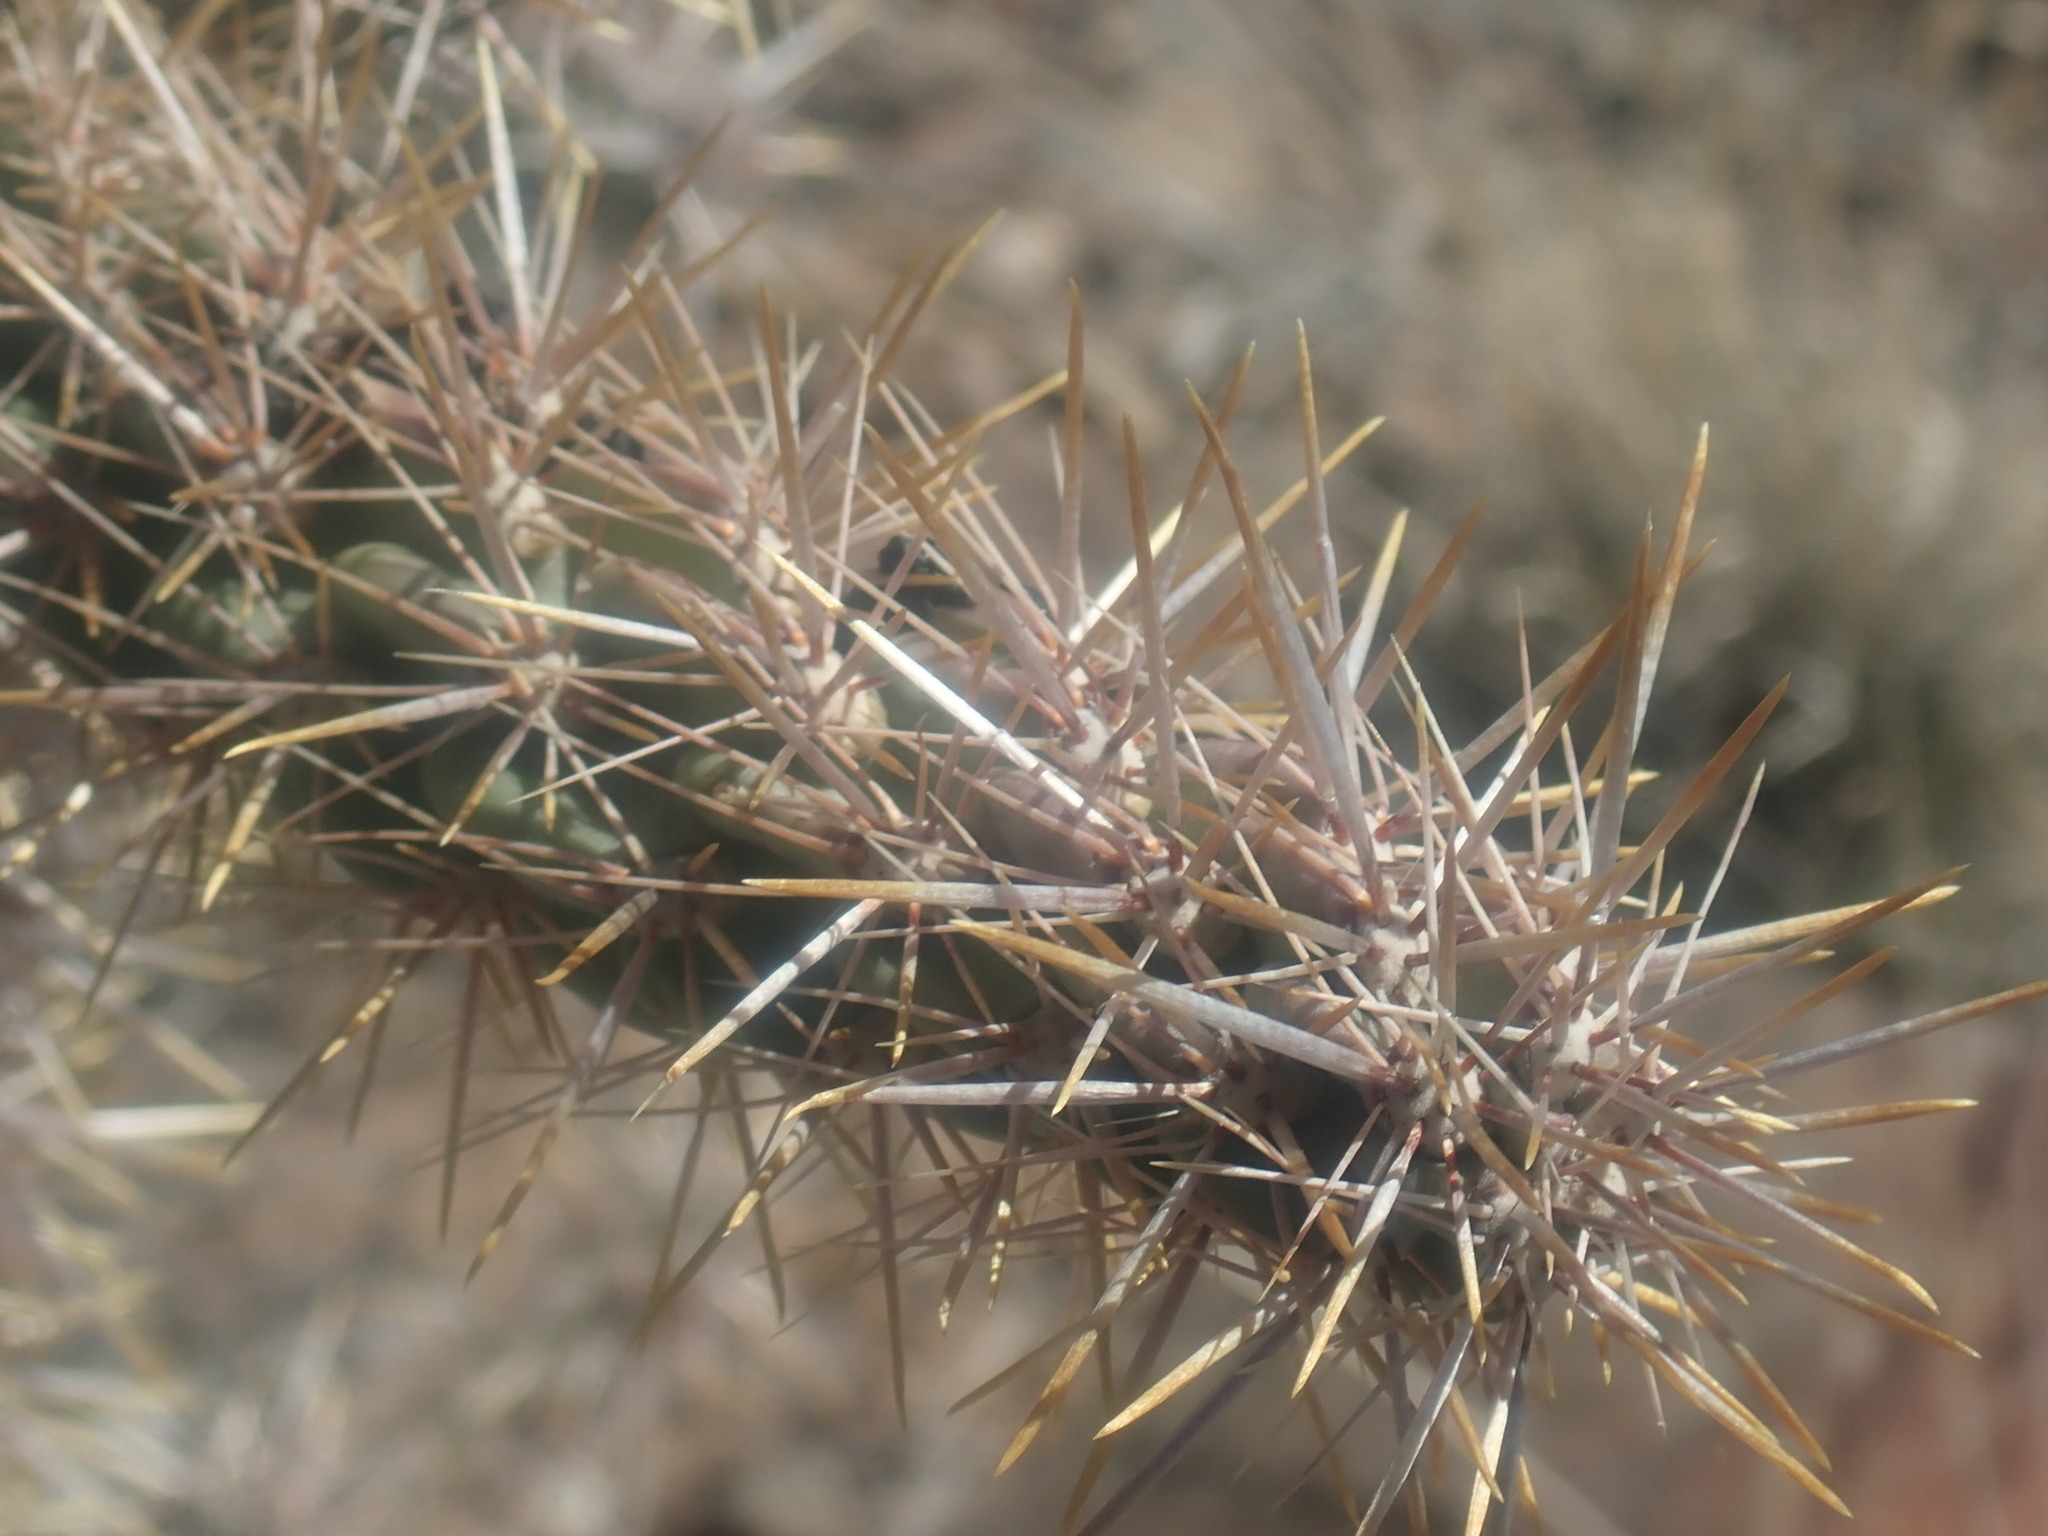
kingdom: Plantae
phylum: Tracheophyta
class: Magnoliopsida
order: Caryophyllales
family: Cactaceae
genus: Cylindropuntia
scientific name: Cylindropuntia imbricata
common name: Candelabrum cactus
